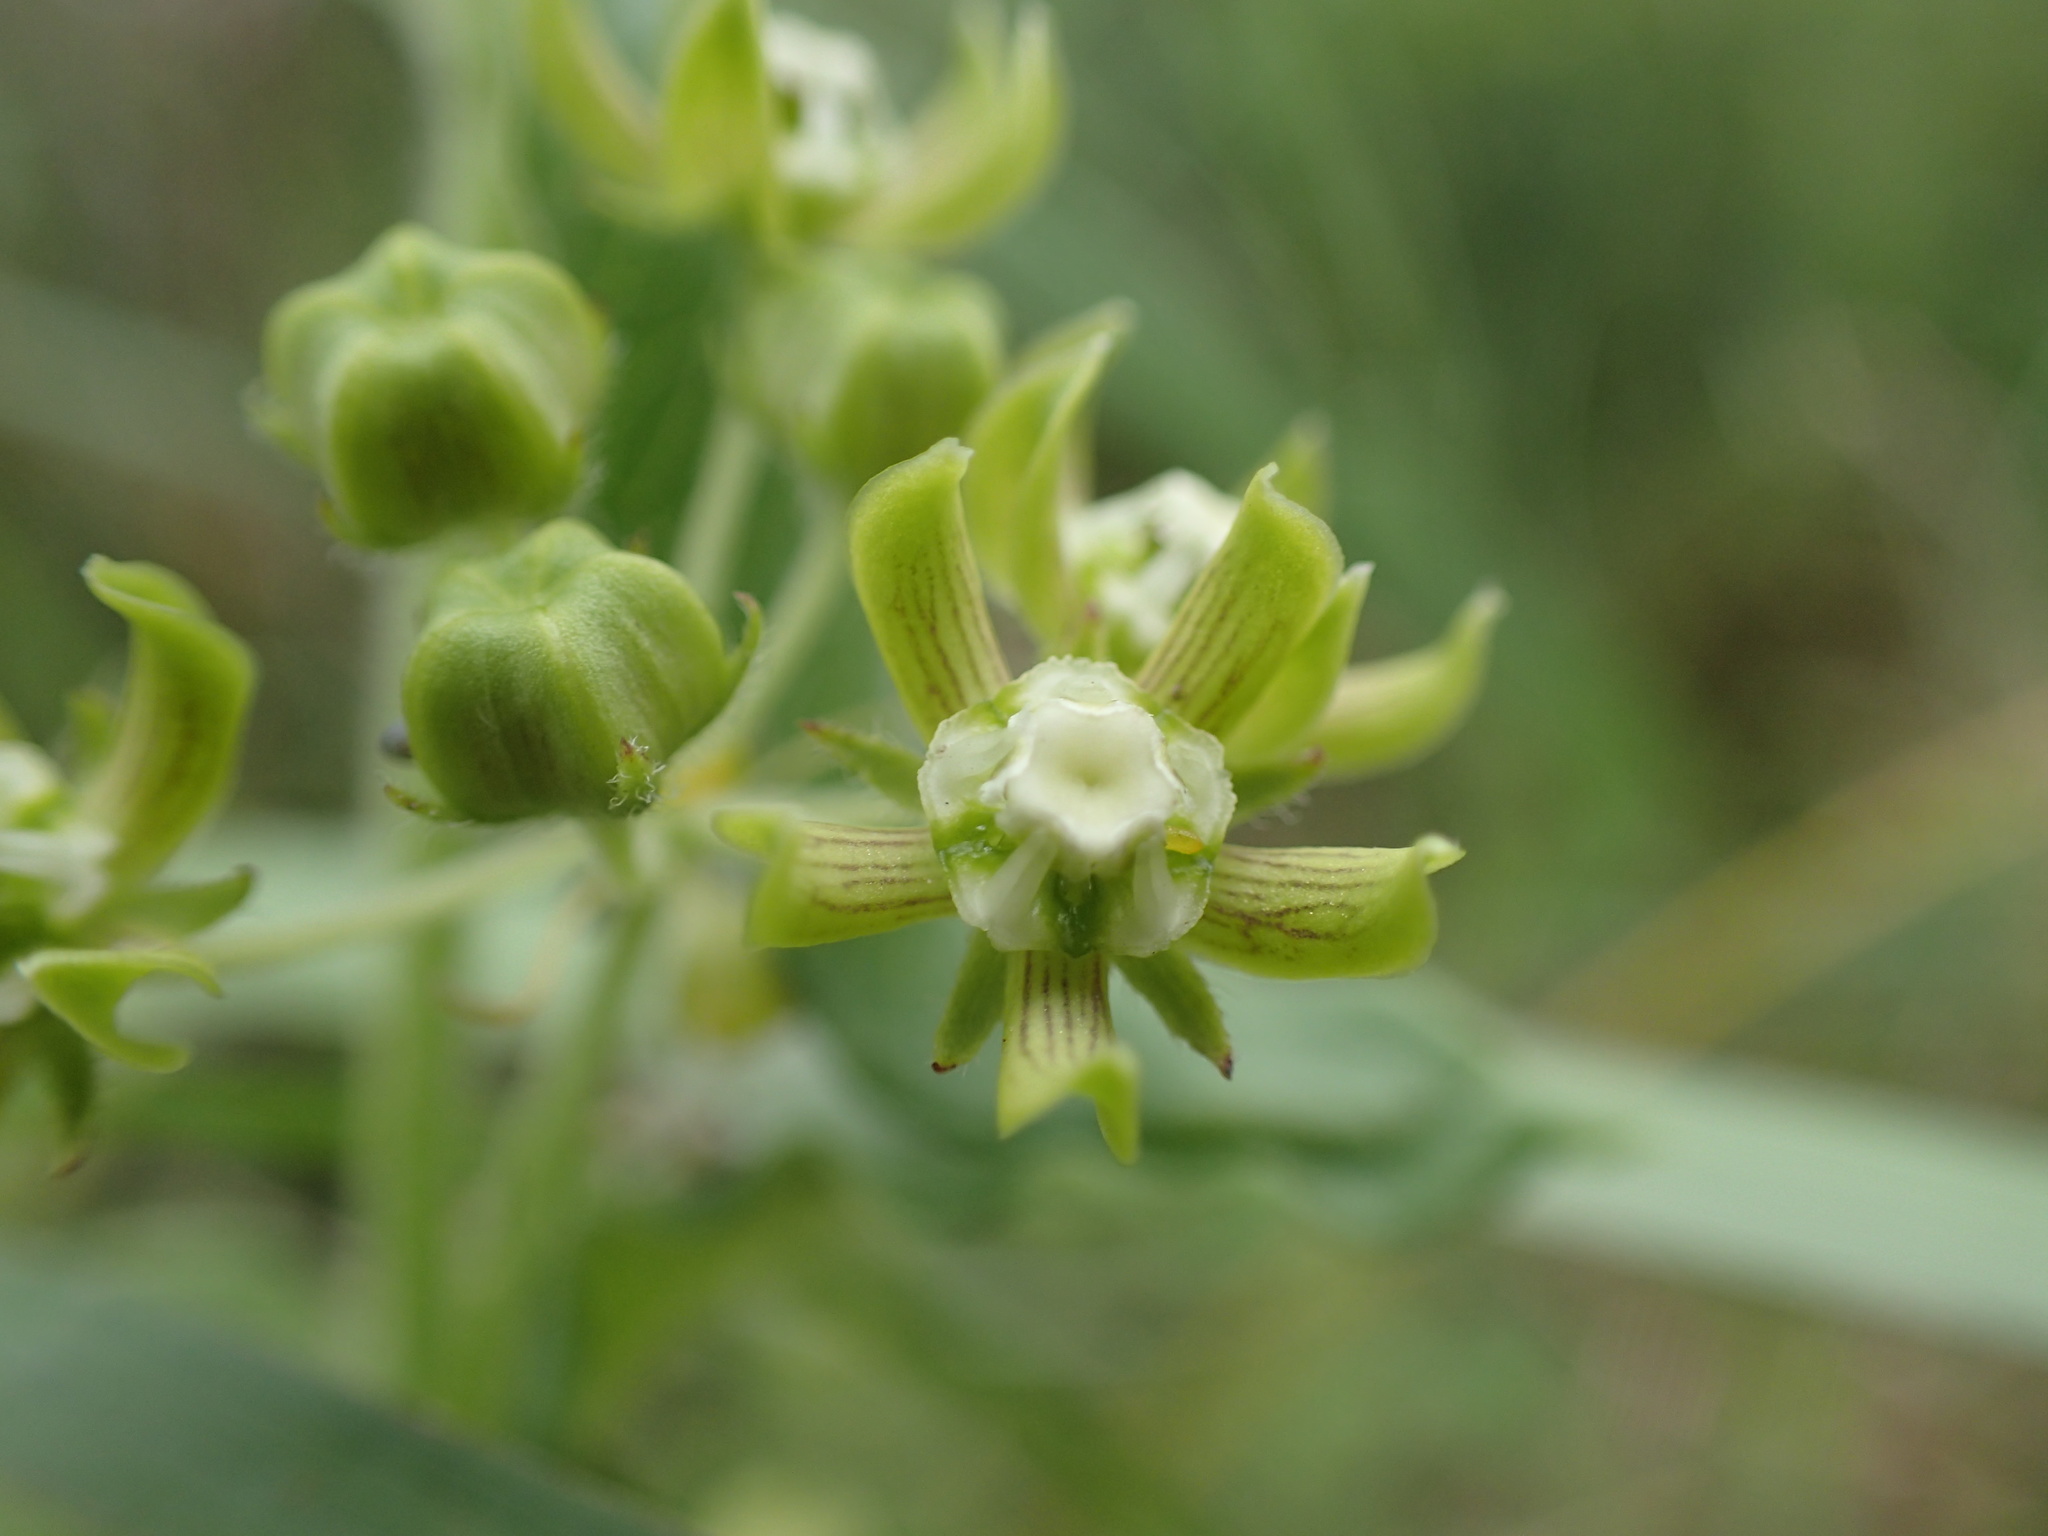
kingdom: Plantae
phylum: Tracheophyta
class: Magnoliopsida
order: Gentianales
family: Apocynaceae
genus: Schizoglossum
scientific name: Schizoglossum cordifolium
